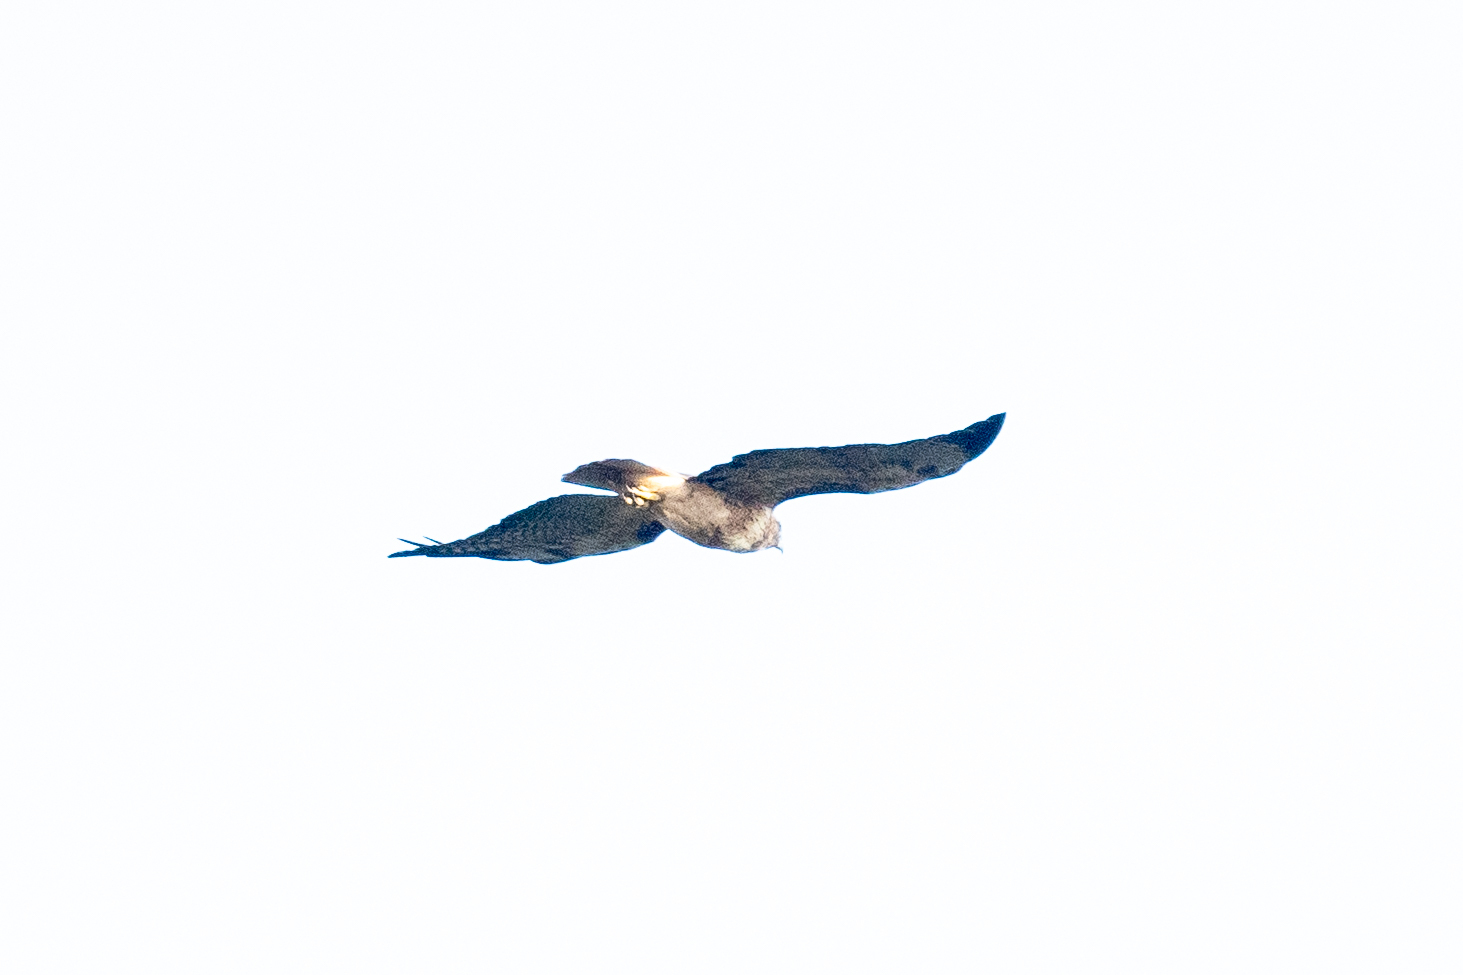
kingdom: Animalia
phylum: Chordata
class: Aves
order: Accipitriformes
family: Accipitridae
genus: Buteo
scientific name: Buteo jamaicensis
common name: Red-tailed hawk
